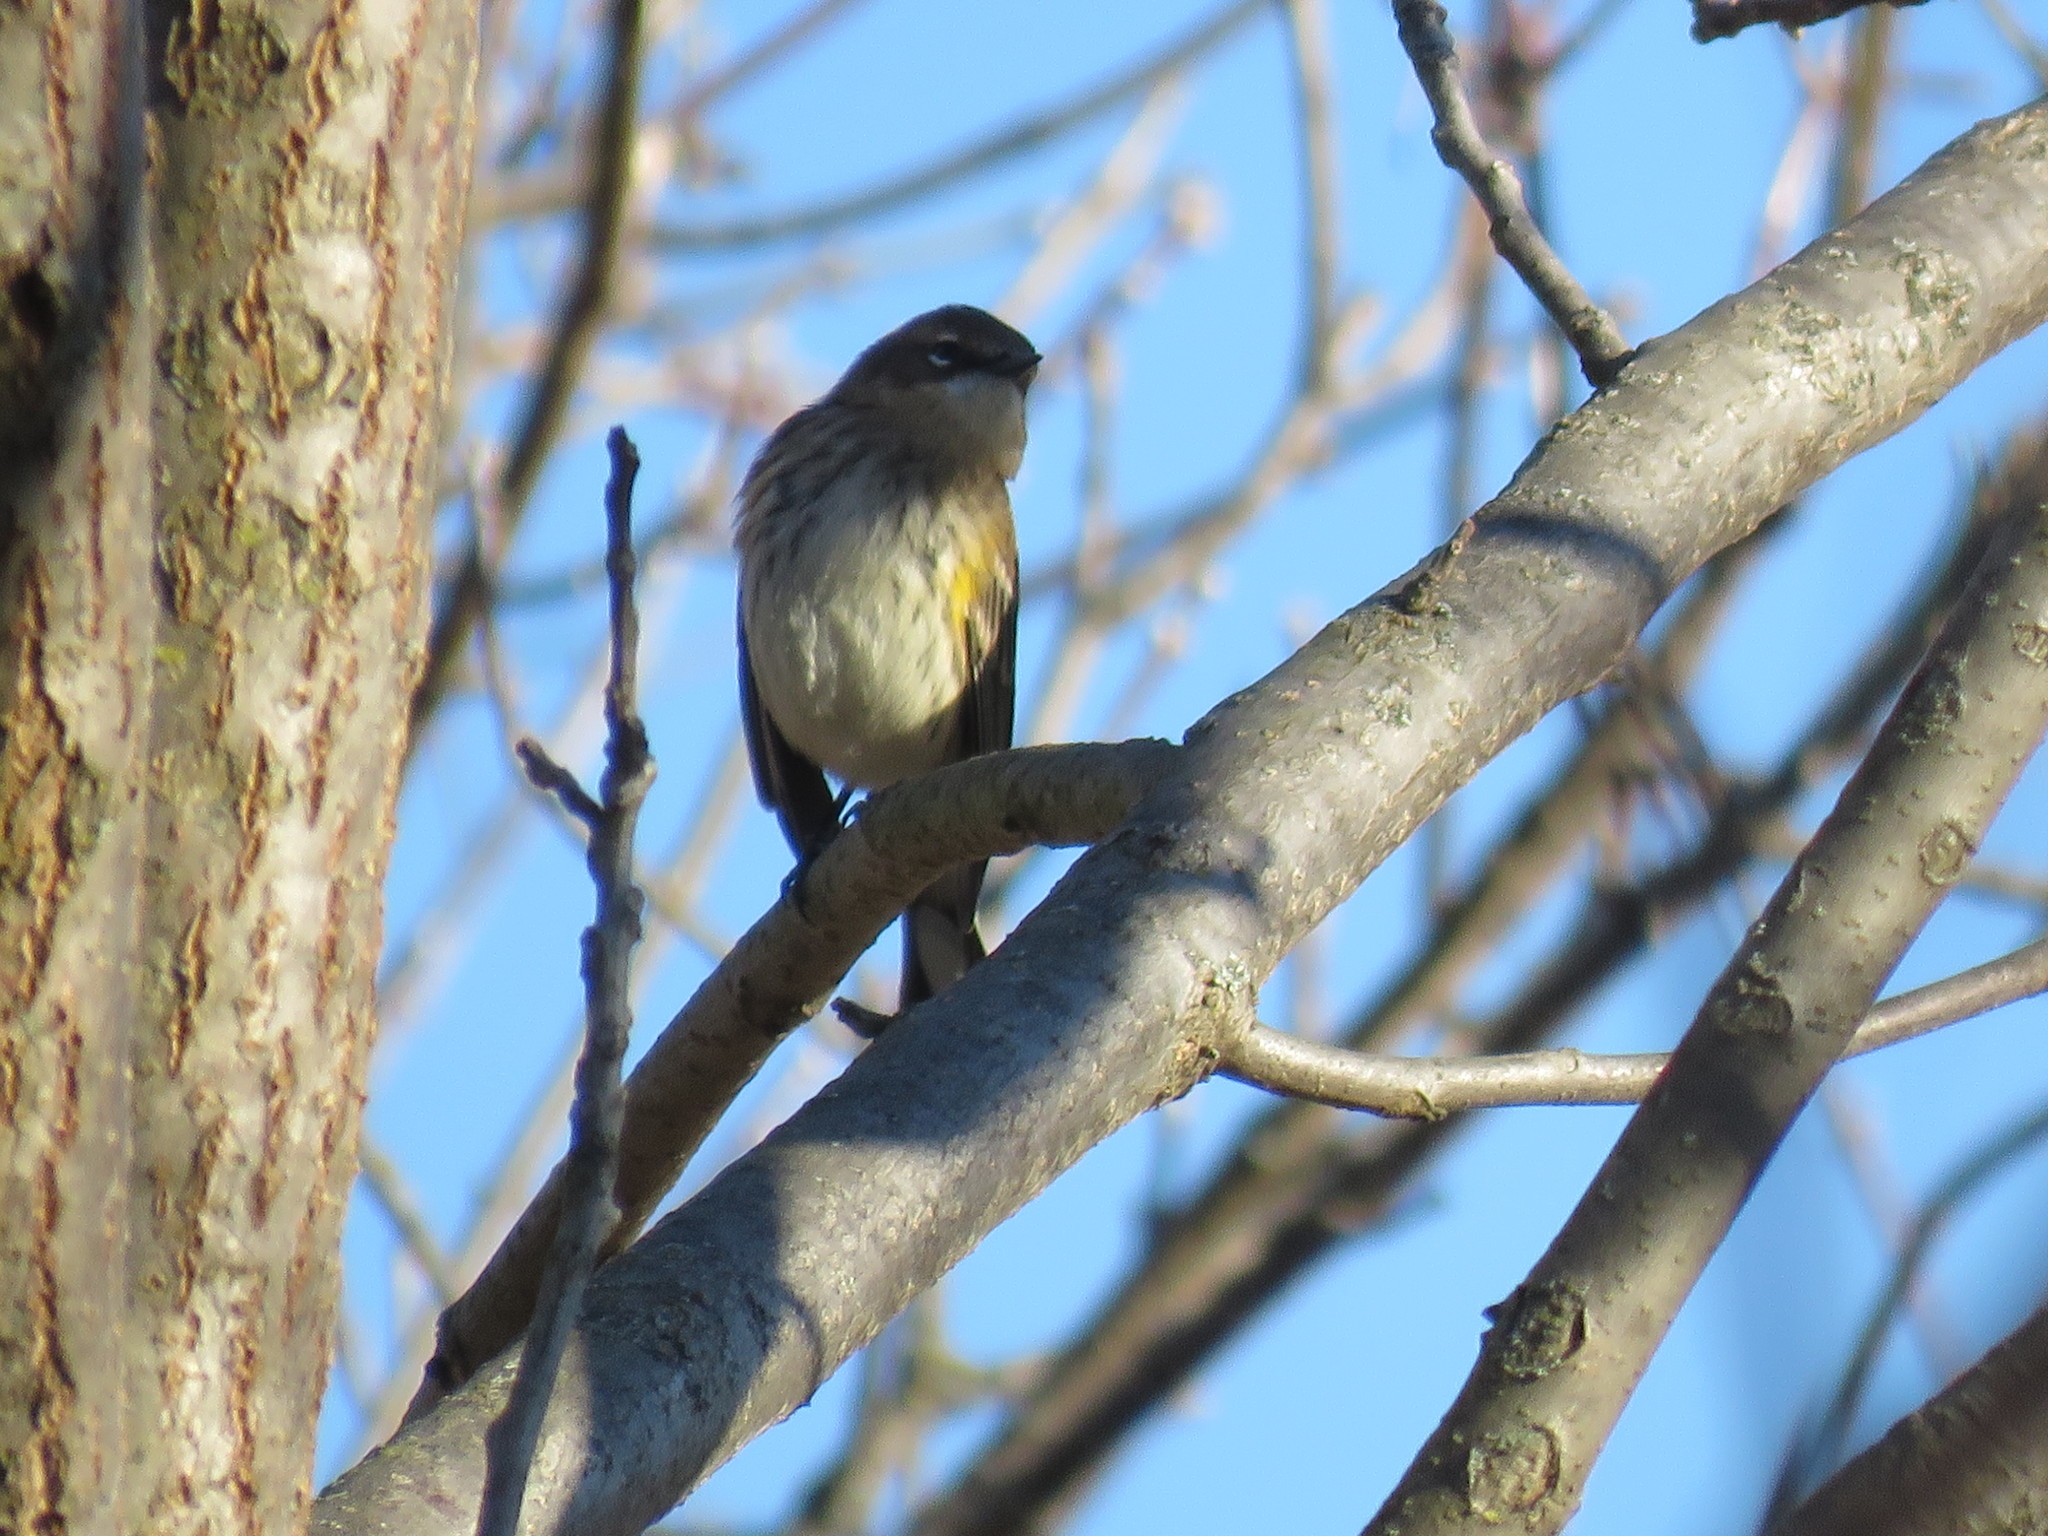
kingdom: Animalia
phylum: Chordata
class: Aves
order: Passeriformes
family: Parulidae
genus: Setophaga
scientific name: Setophaga coronata
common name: Myrtle warbler
